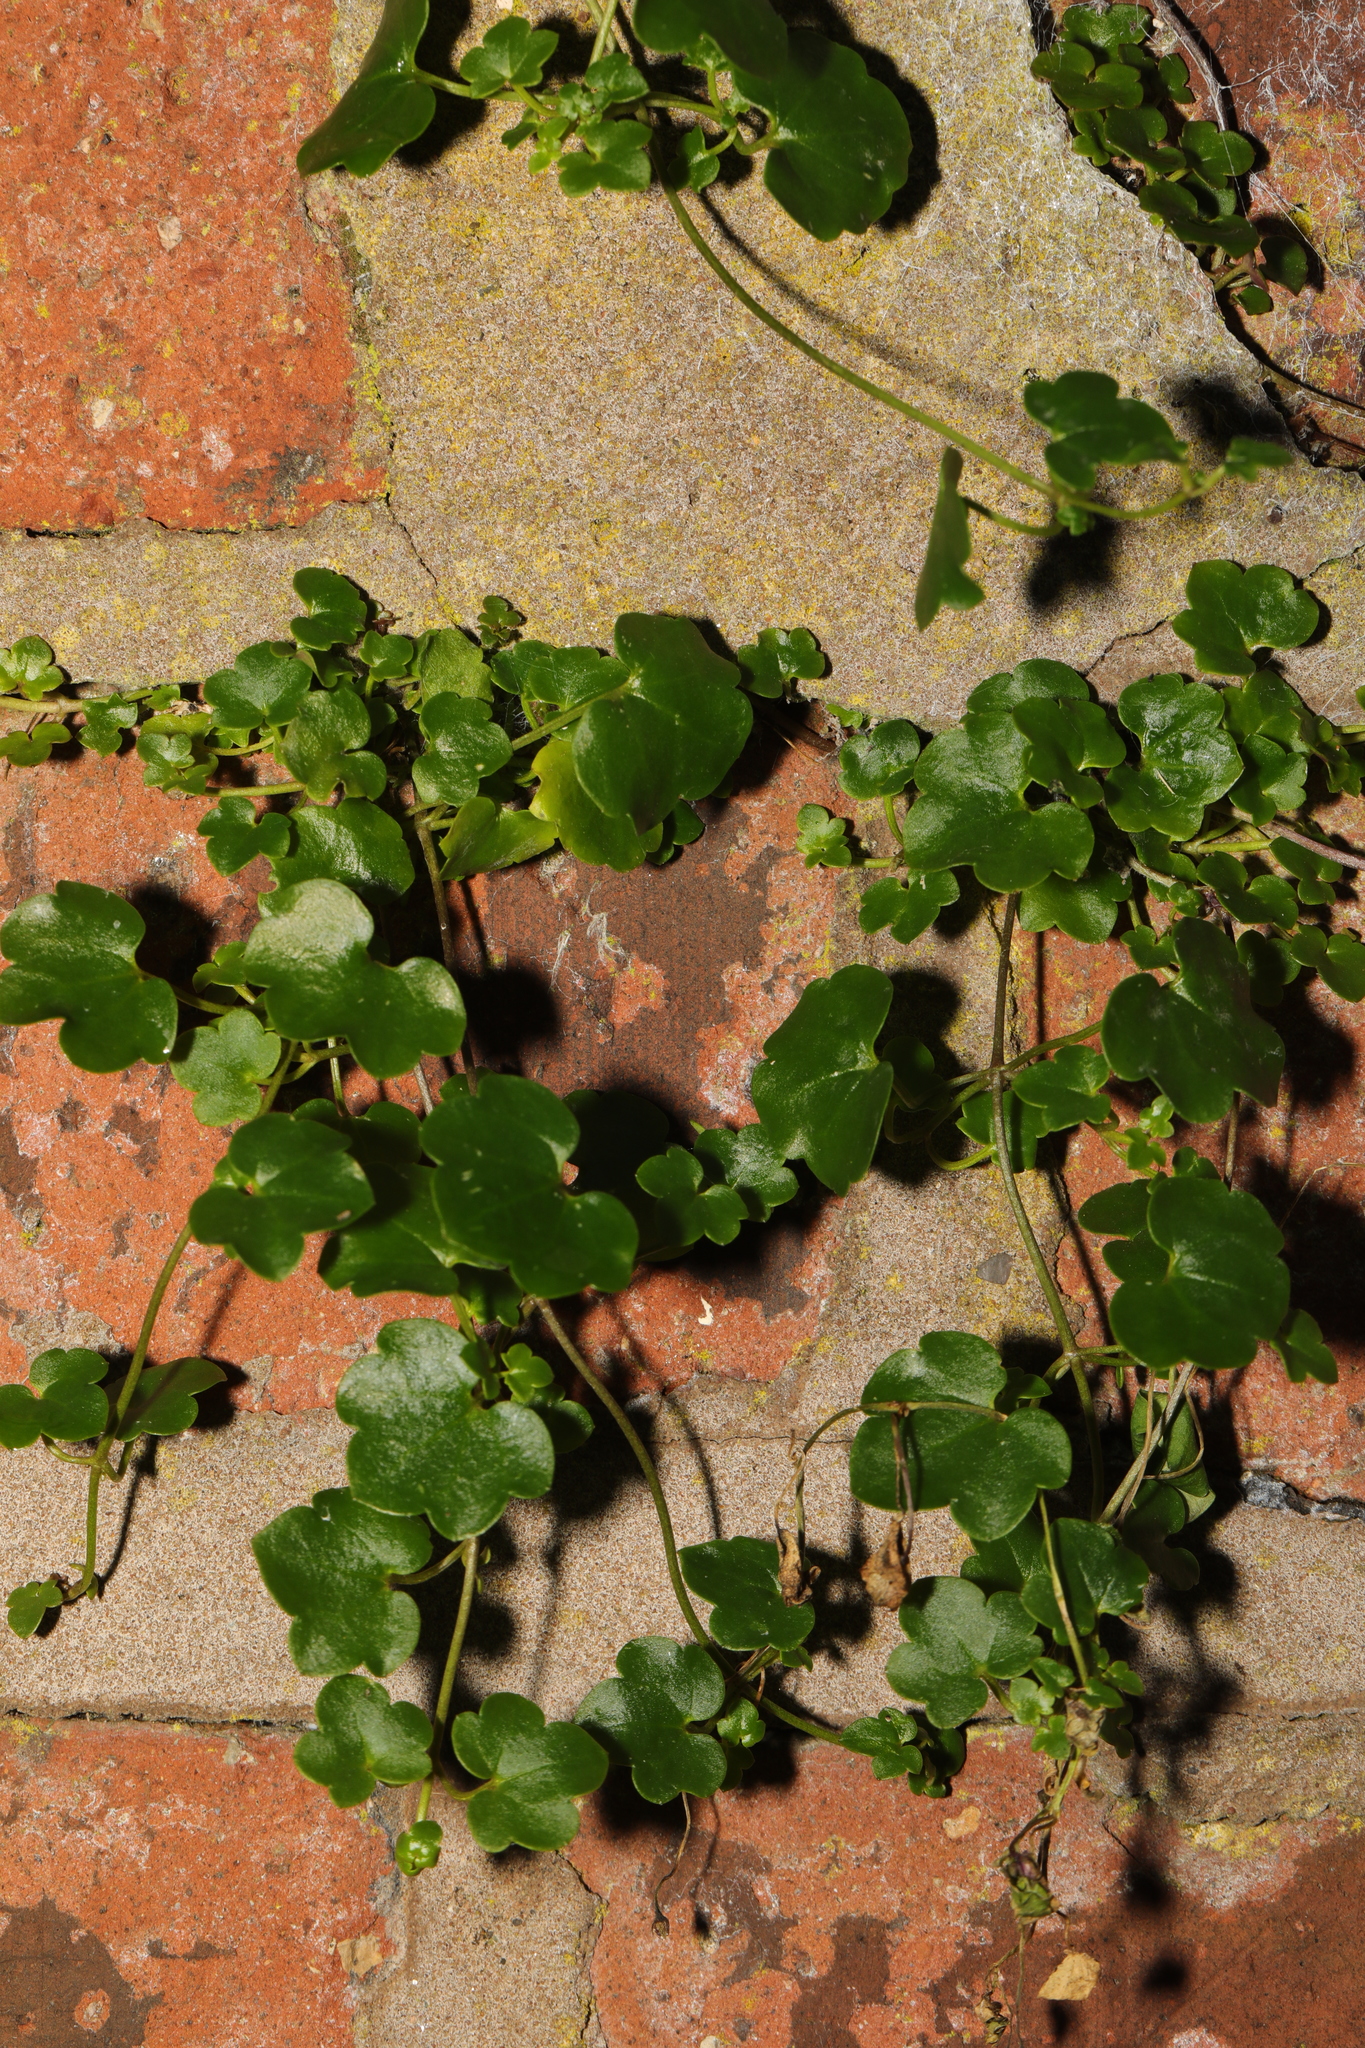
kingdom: Plantae
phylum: Tracheophyta
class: Magnoliopsida
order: Lamiales
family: Plantaginaceae
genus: Cymbalaria
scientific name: Cymbalaria muralis
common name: Ivy-leaved toadflax
